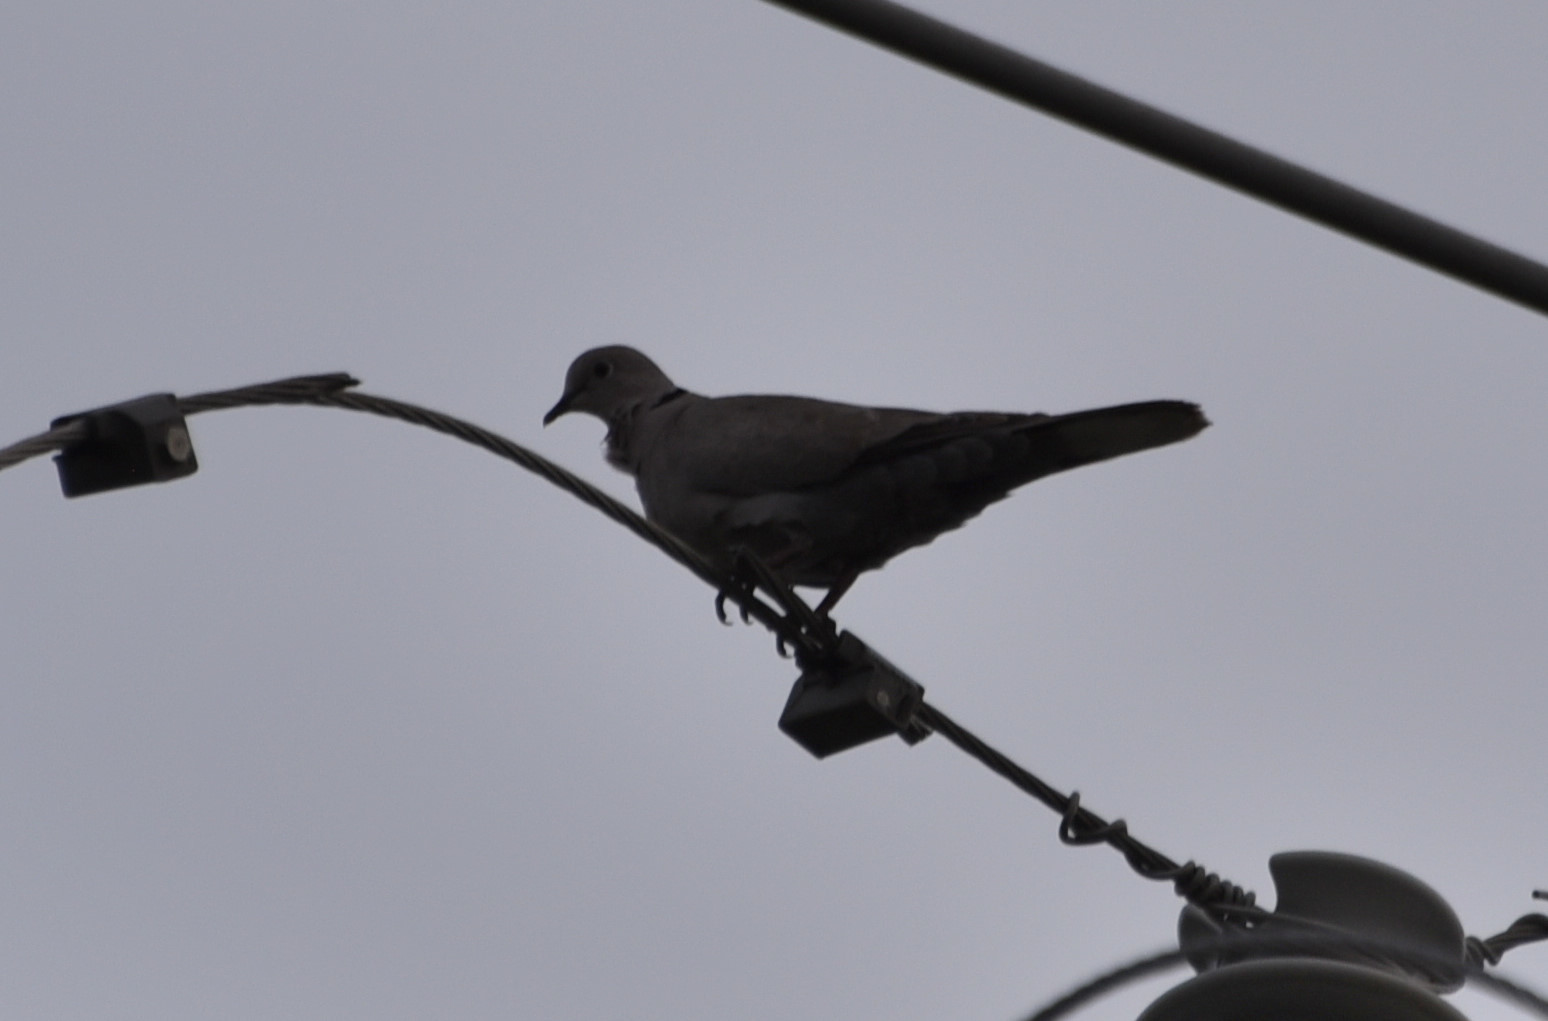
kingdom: Animalia
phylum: Chordata
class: Aves
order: Columbiformes
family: Columbidae
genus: Streptopelia
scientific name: Streptopelia decaocto
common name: Eurasian collared dove
